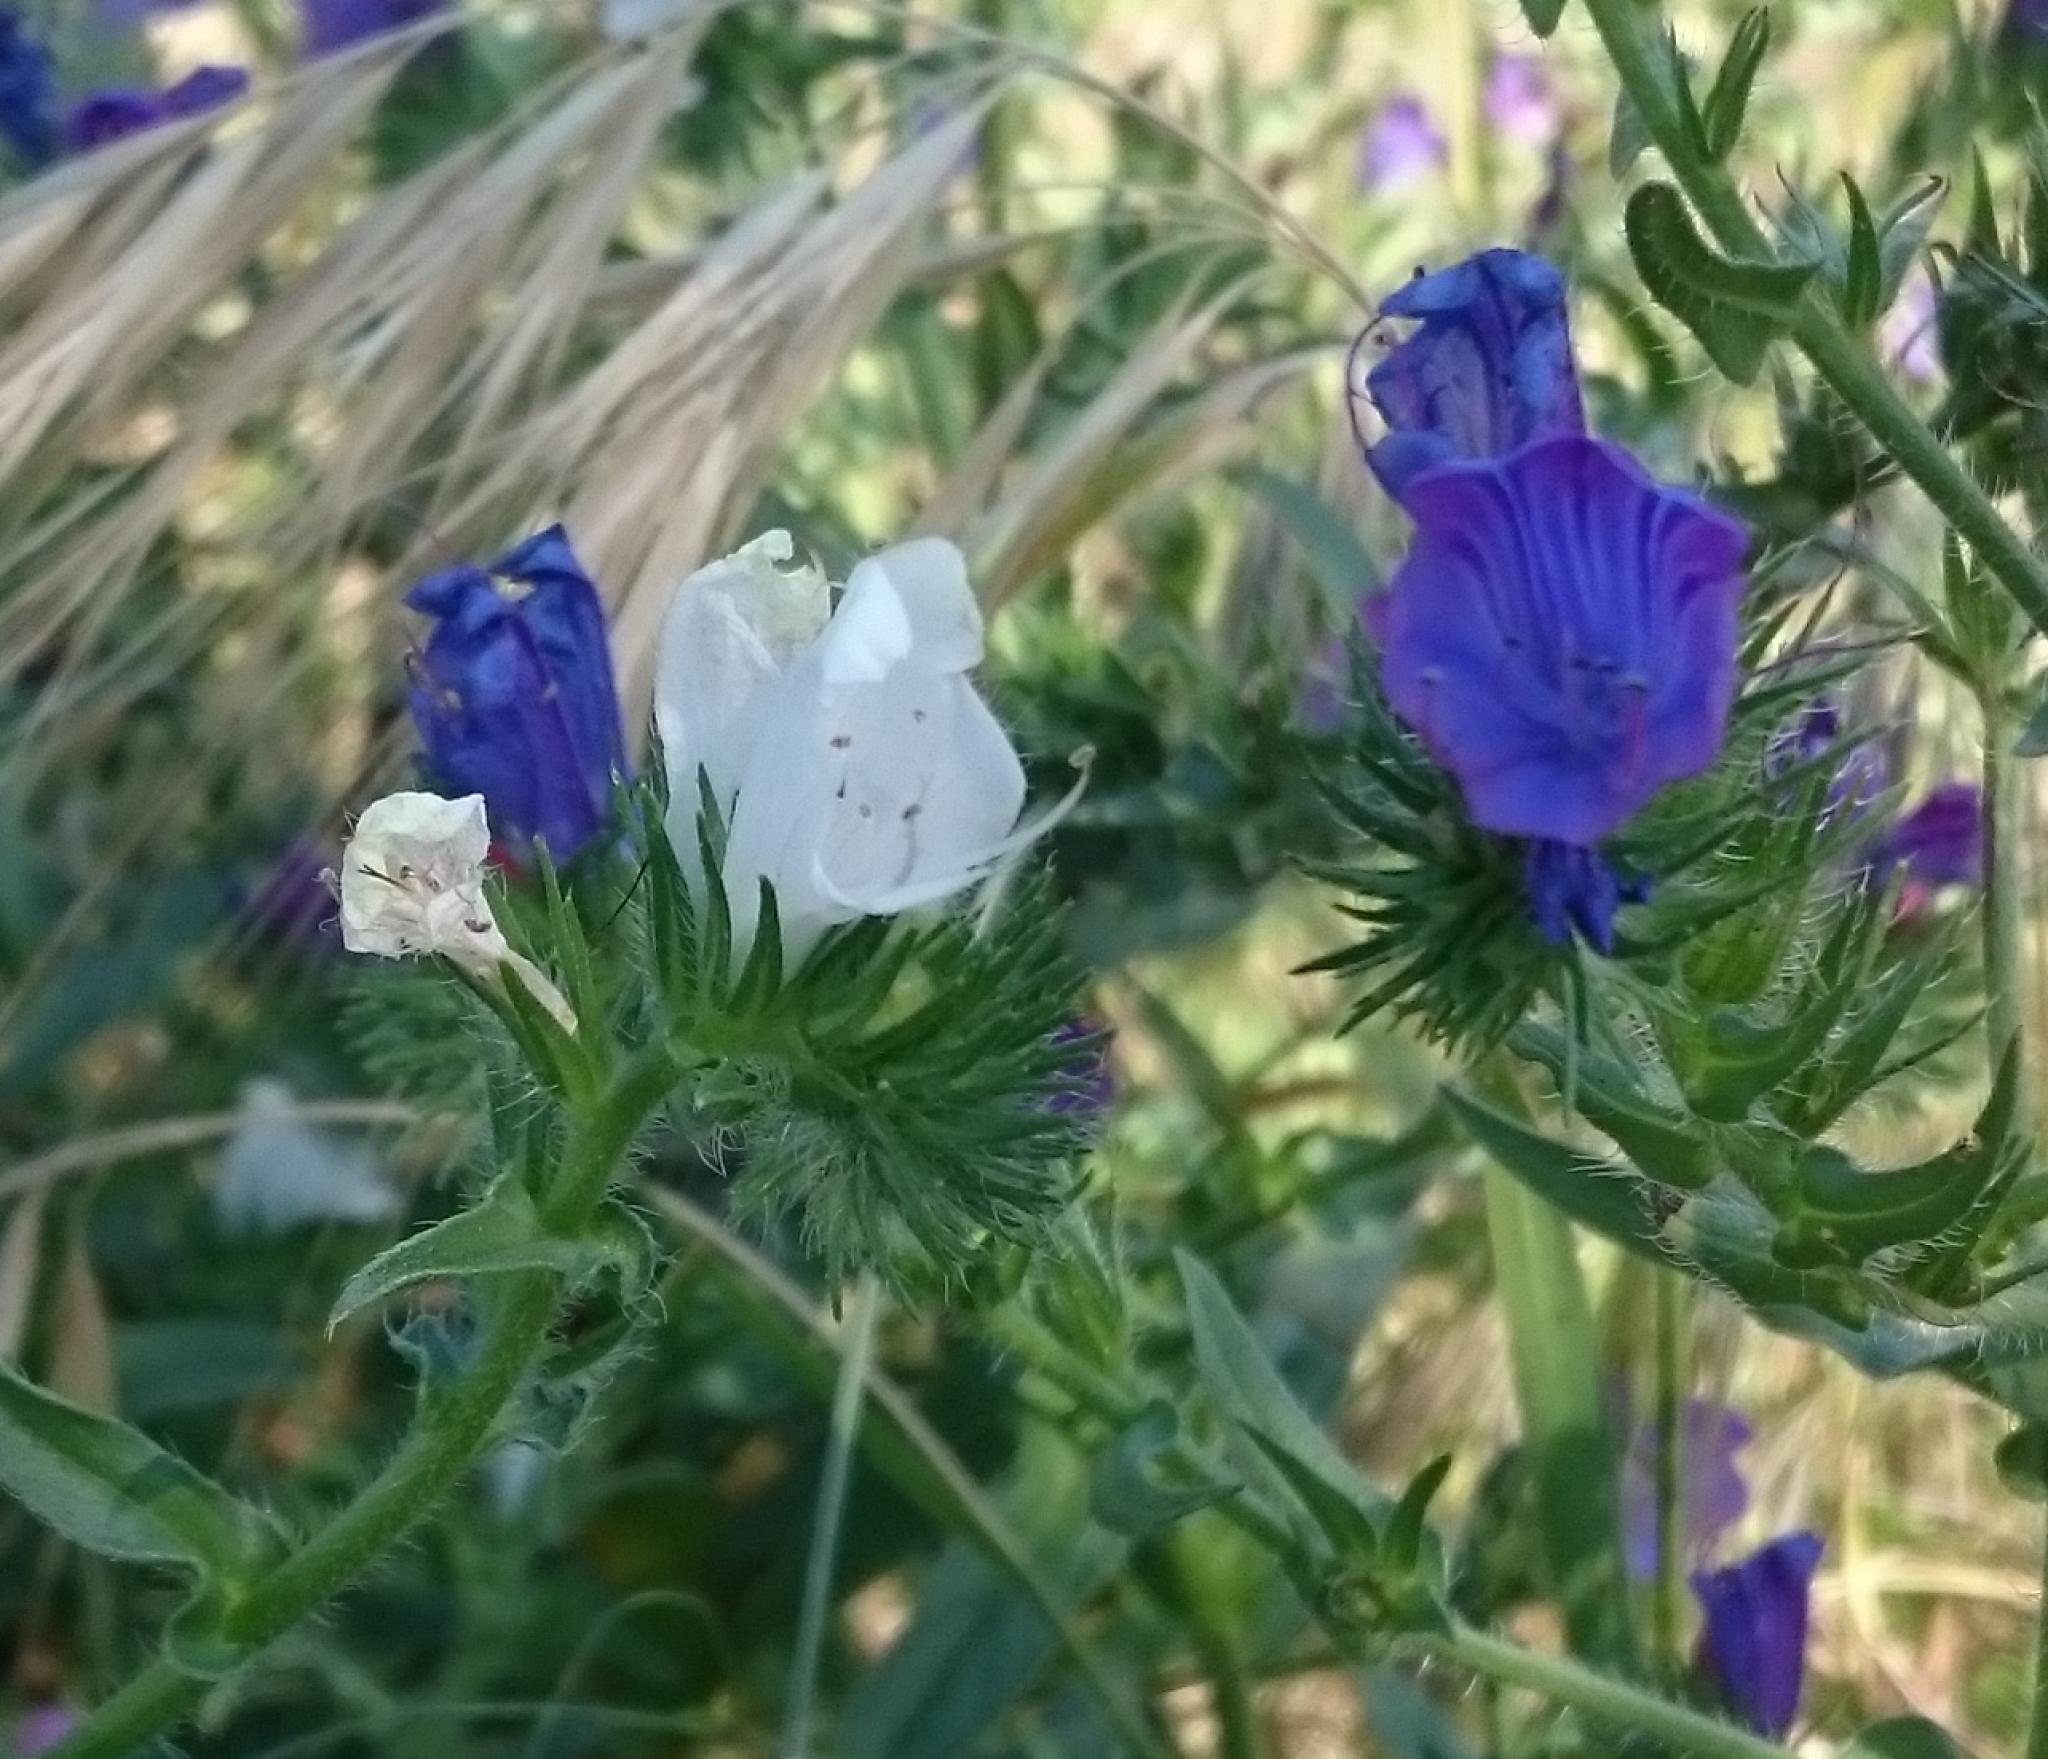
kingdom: Plantae
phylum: Tracheophyta
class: Magnoliopsida
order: Boraginales
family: Boraginaceae
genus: Echium
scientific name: Echium plantagineum
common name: Purple viper's-bugloss
